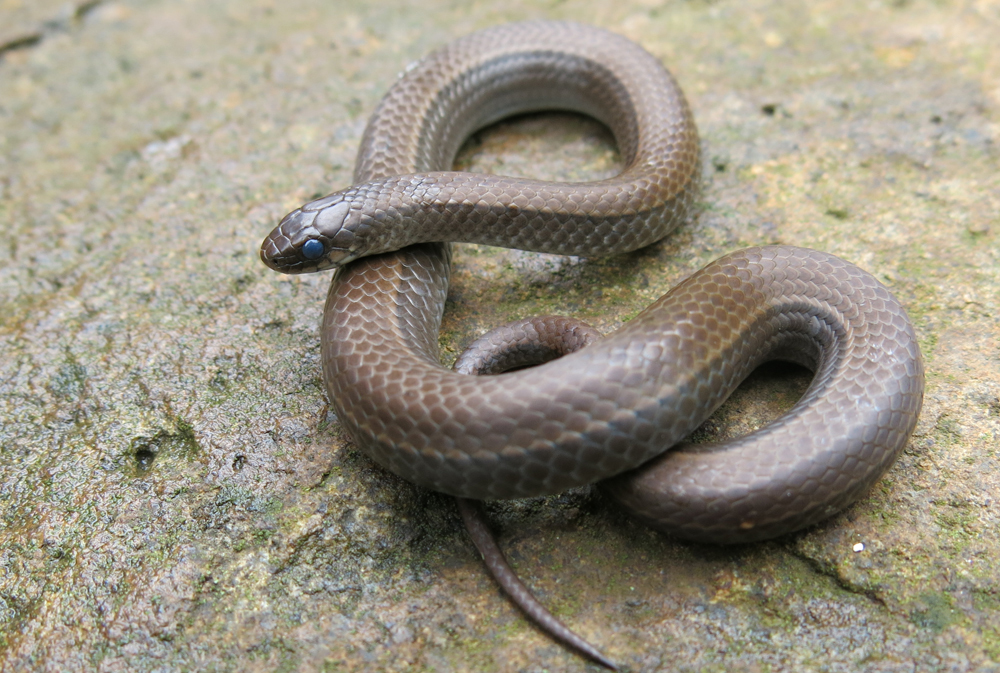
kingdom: Animalia
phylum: Chordata
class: Squamata
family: Pseudoxyrhophiidae
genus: Duberria
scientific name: Duberria lutrix
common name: Common slug eater
